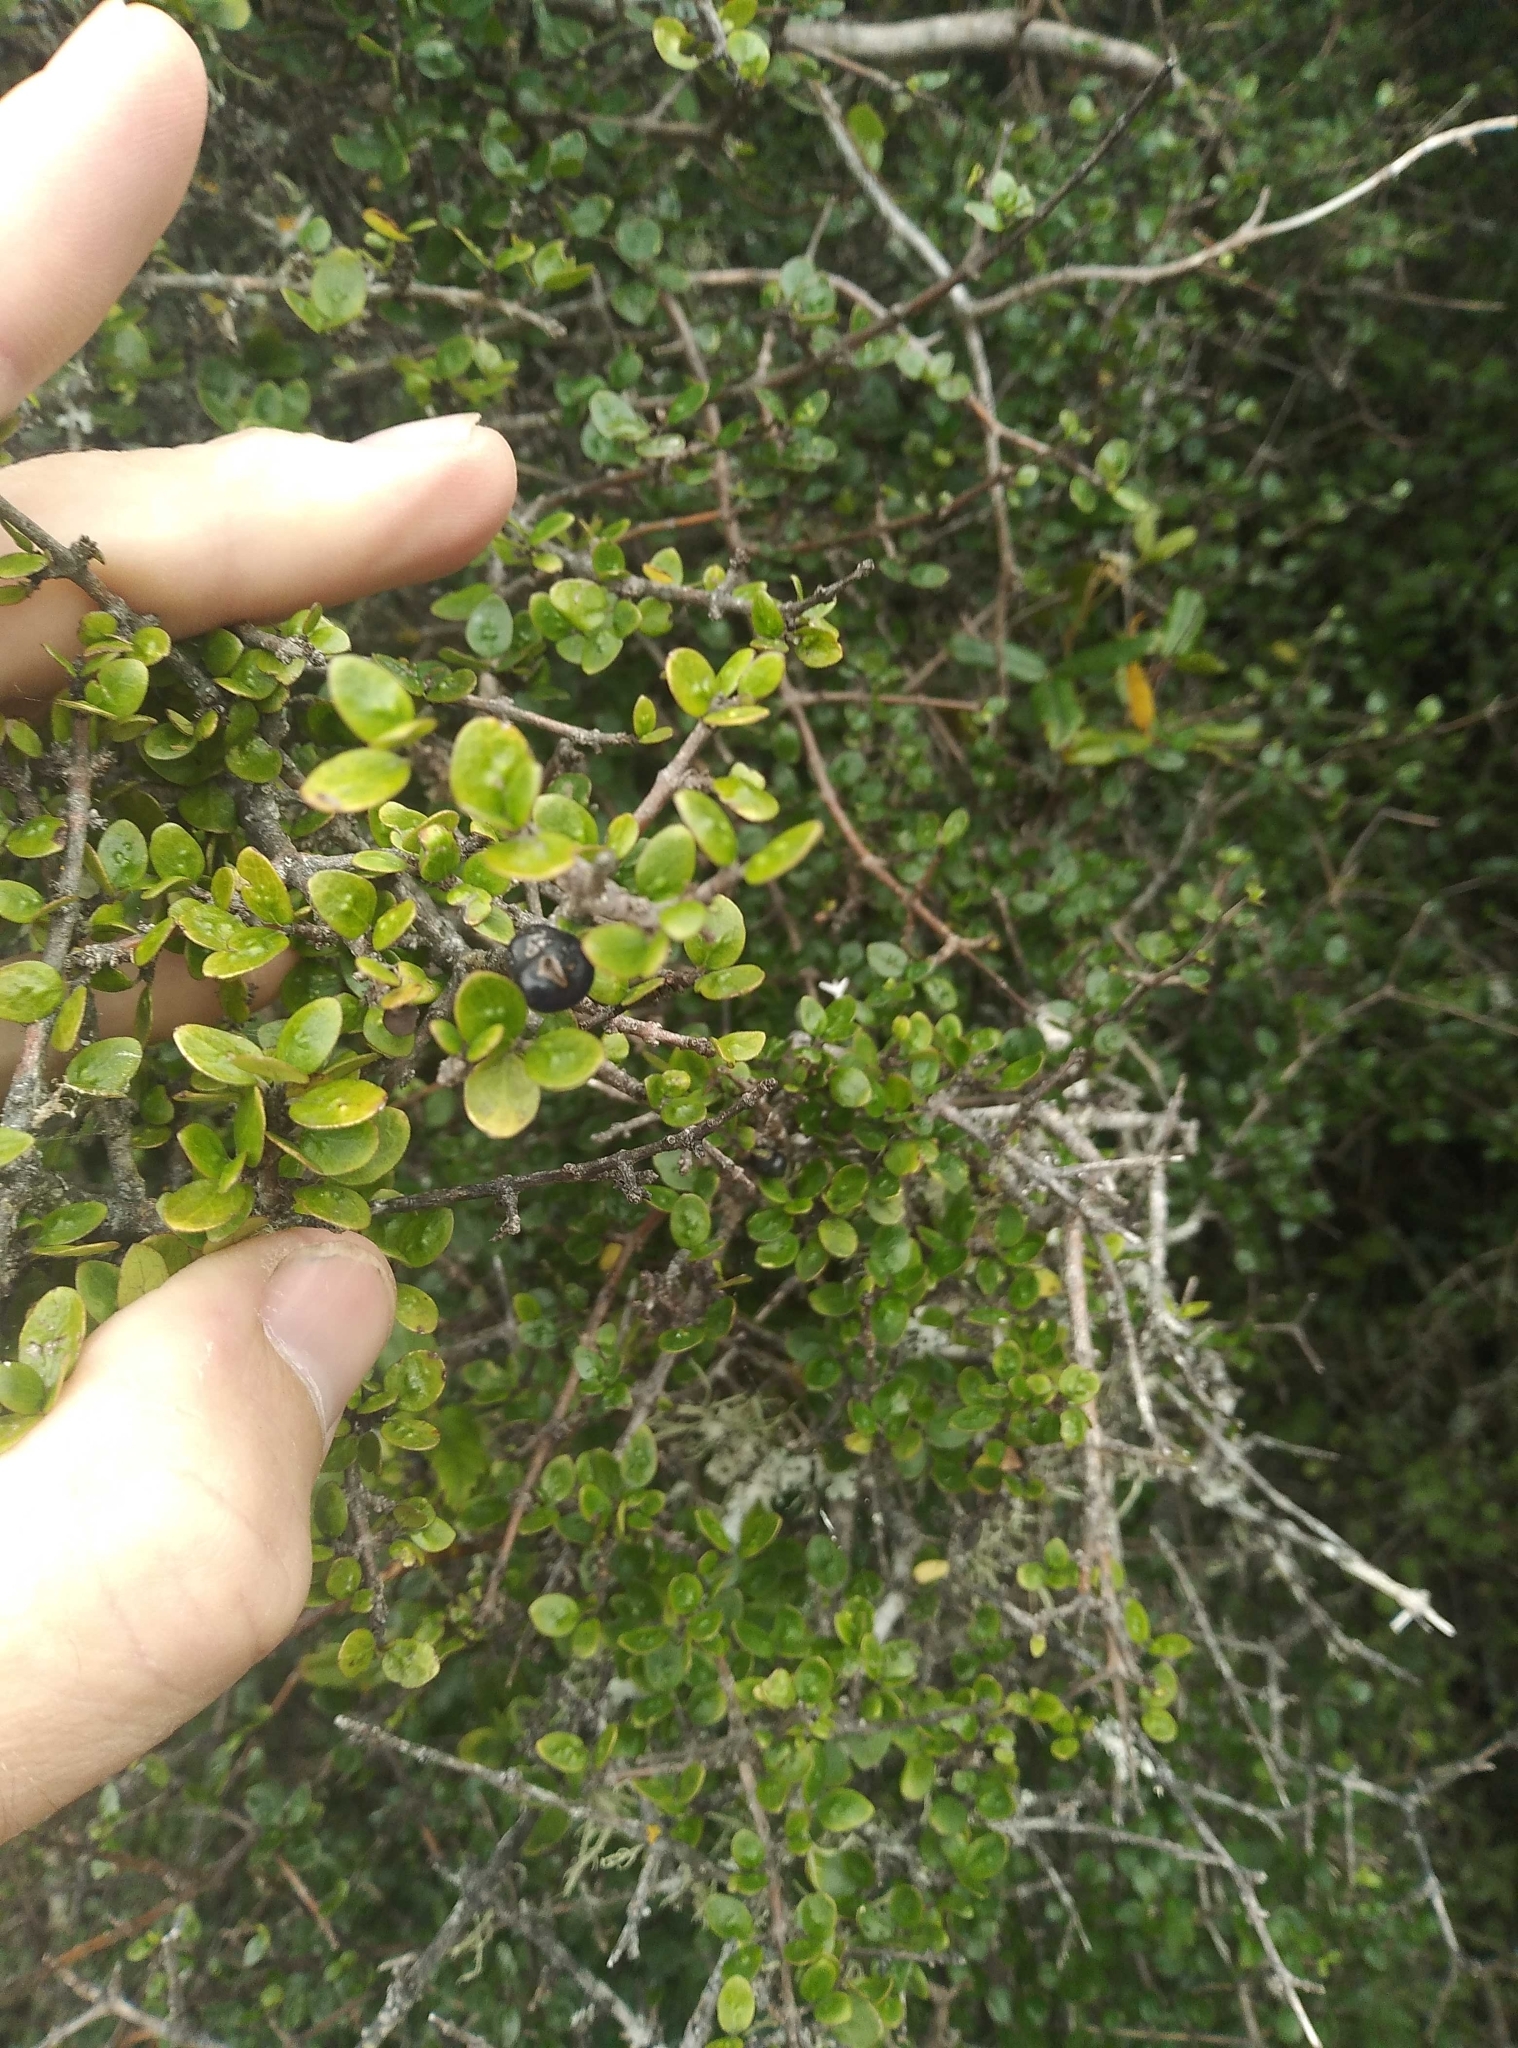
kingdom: Plantae
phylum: Tracheophyta
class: Magnoliopsida
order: Gentianales
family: Rubiaceae
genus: Coprosma
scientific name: Coprosma wallii
